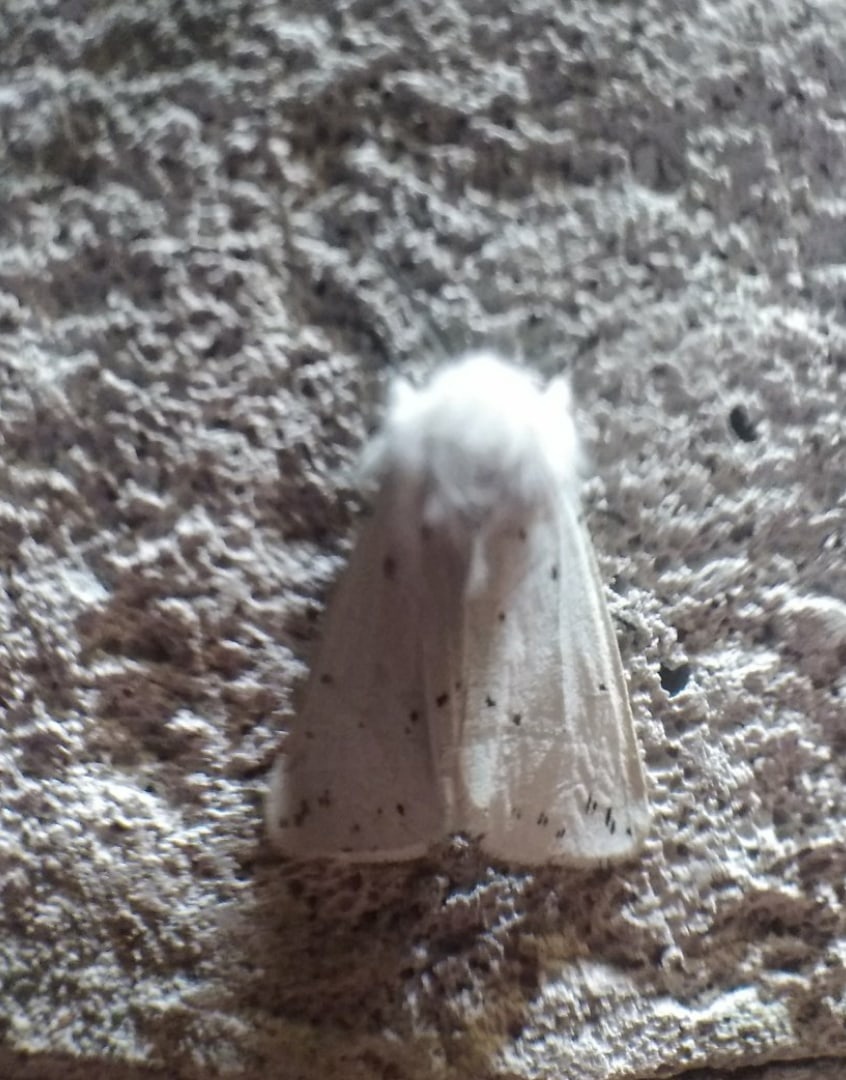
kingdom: Animalia
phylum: Arthropoda
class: Insecta
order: Lepidoptera
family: Erebidae
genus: Spilosoma
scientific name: Spilosoma lubricipeda
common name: White ermine
